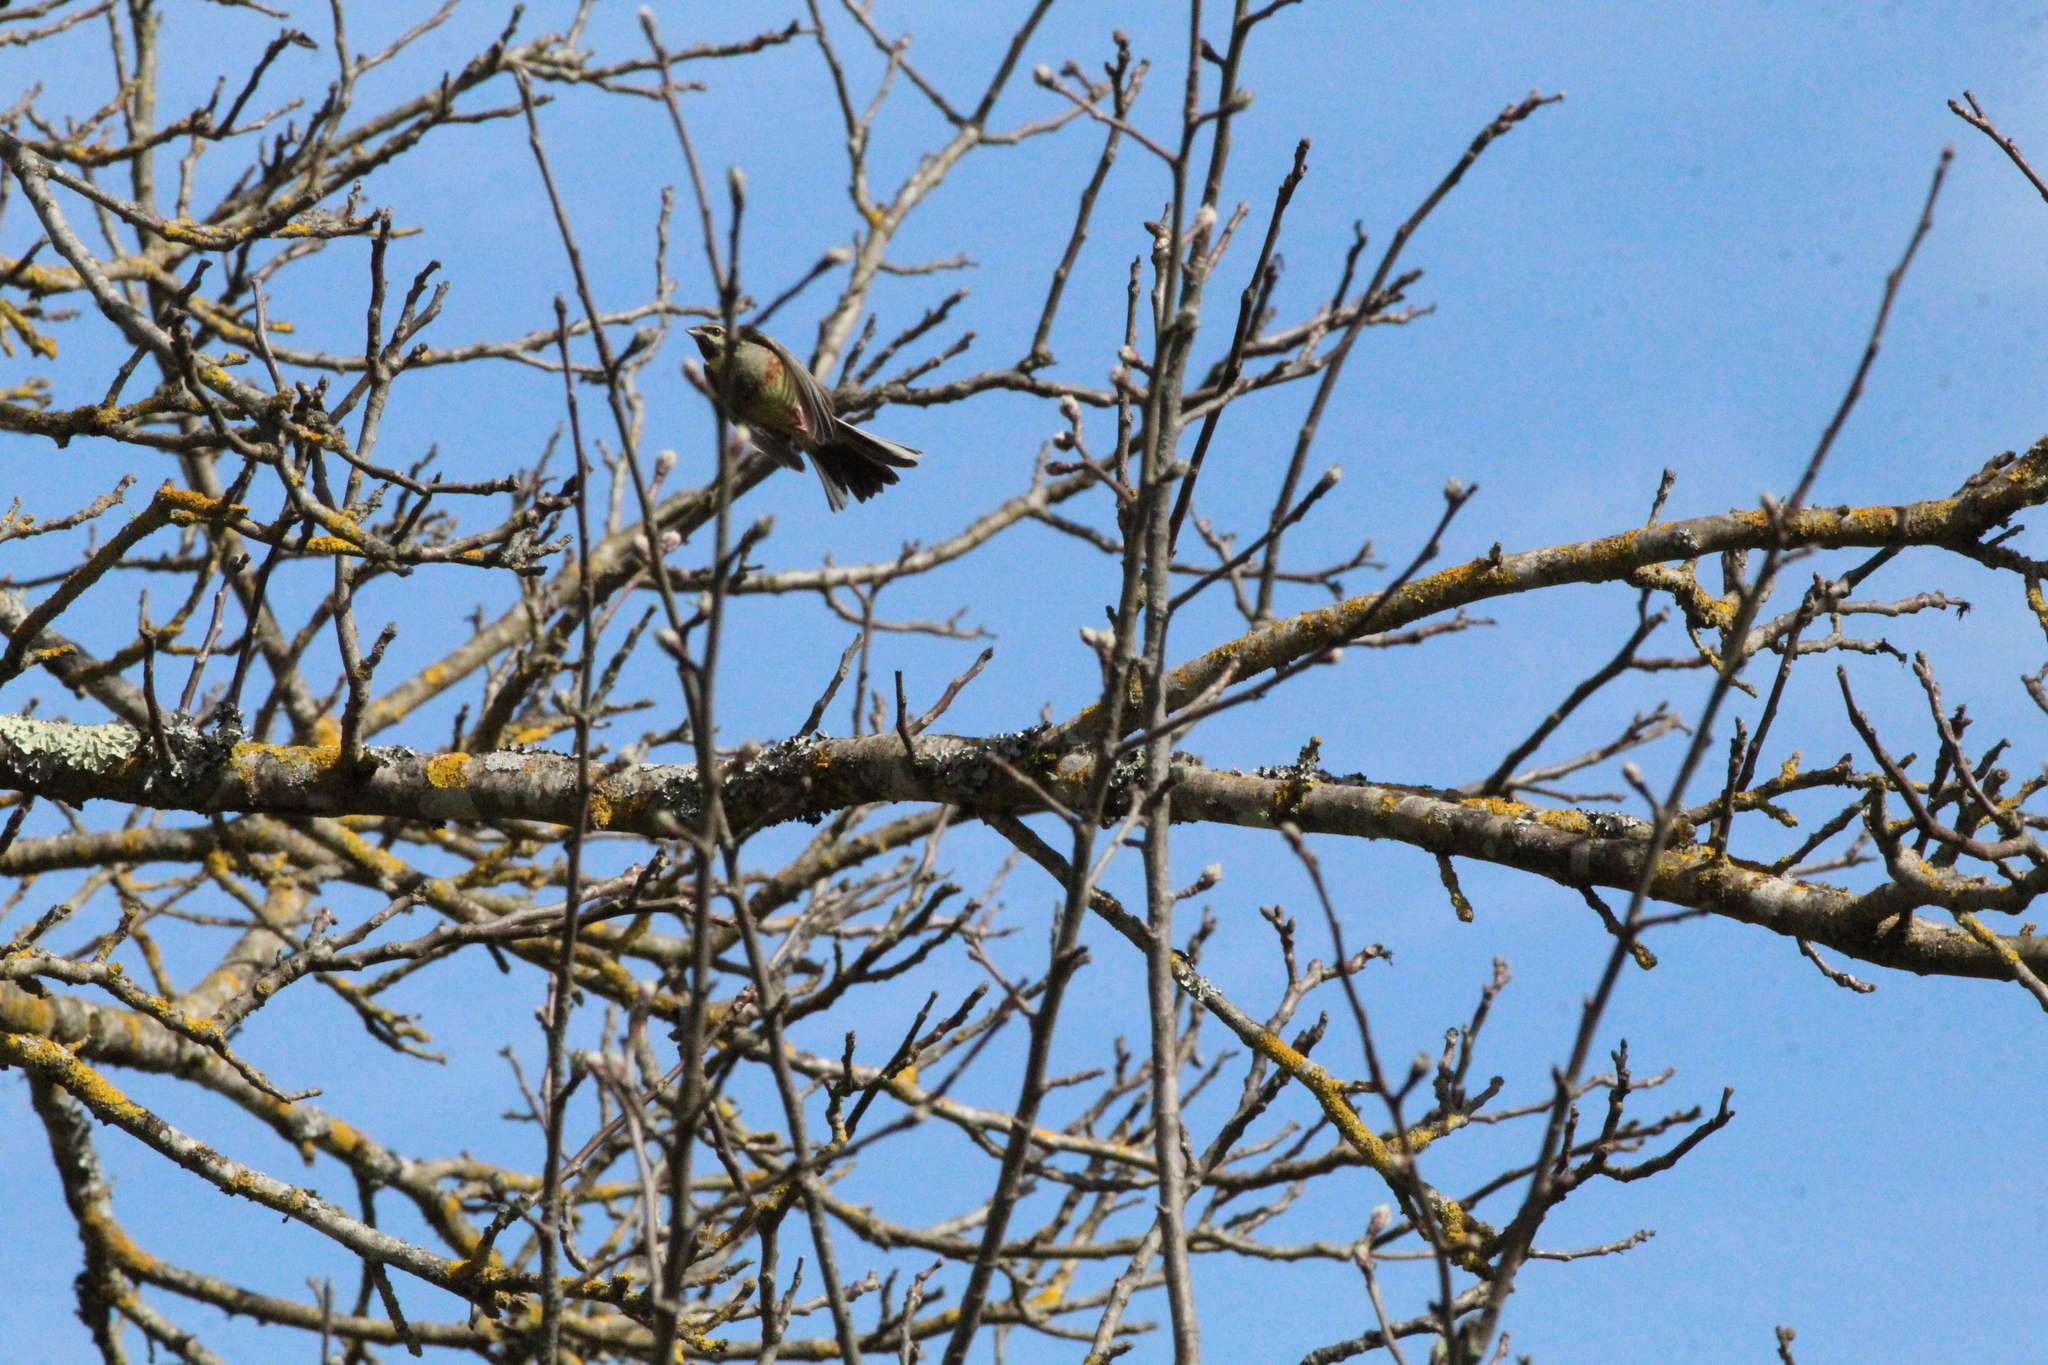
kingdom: Animalia
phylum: Chordata
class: Aves
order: Passeriformes
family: Emberizidae
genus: Emberiza
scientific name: Emberiza cirlus
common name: Cirl bunting
